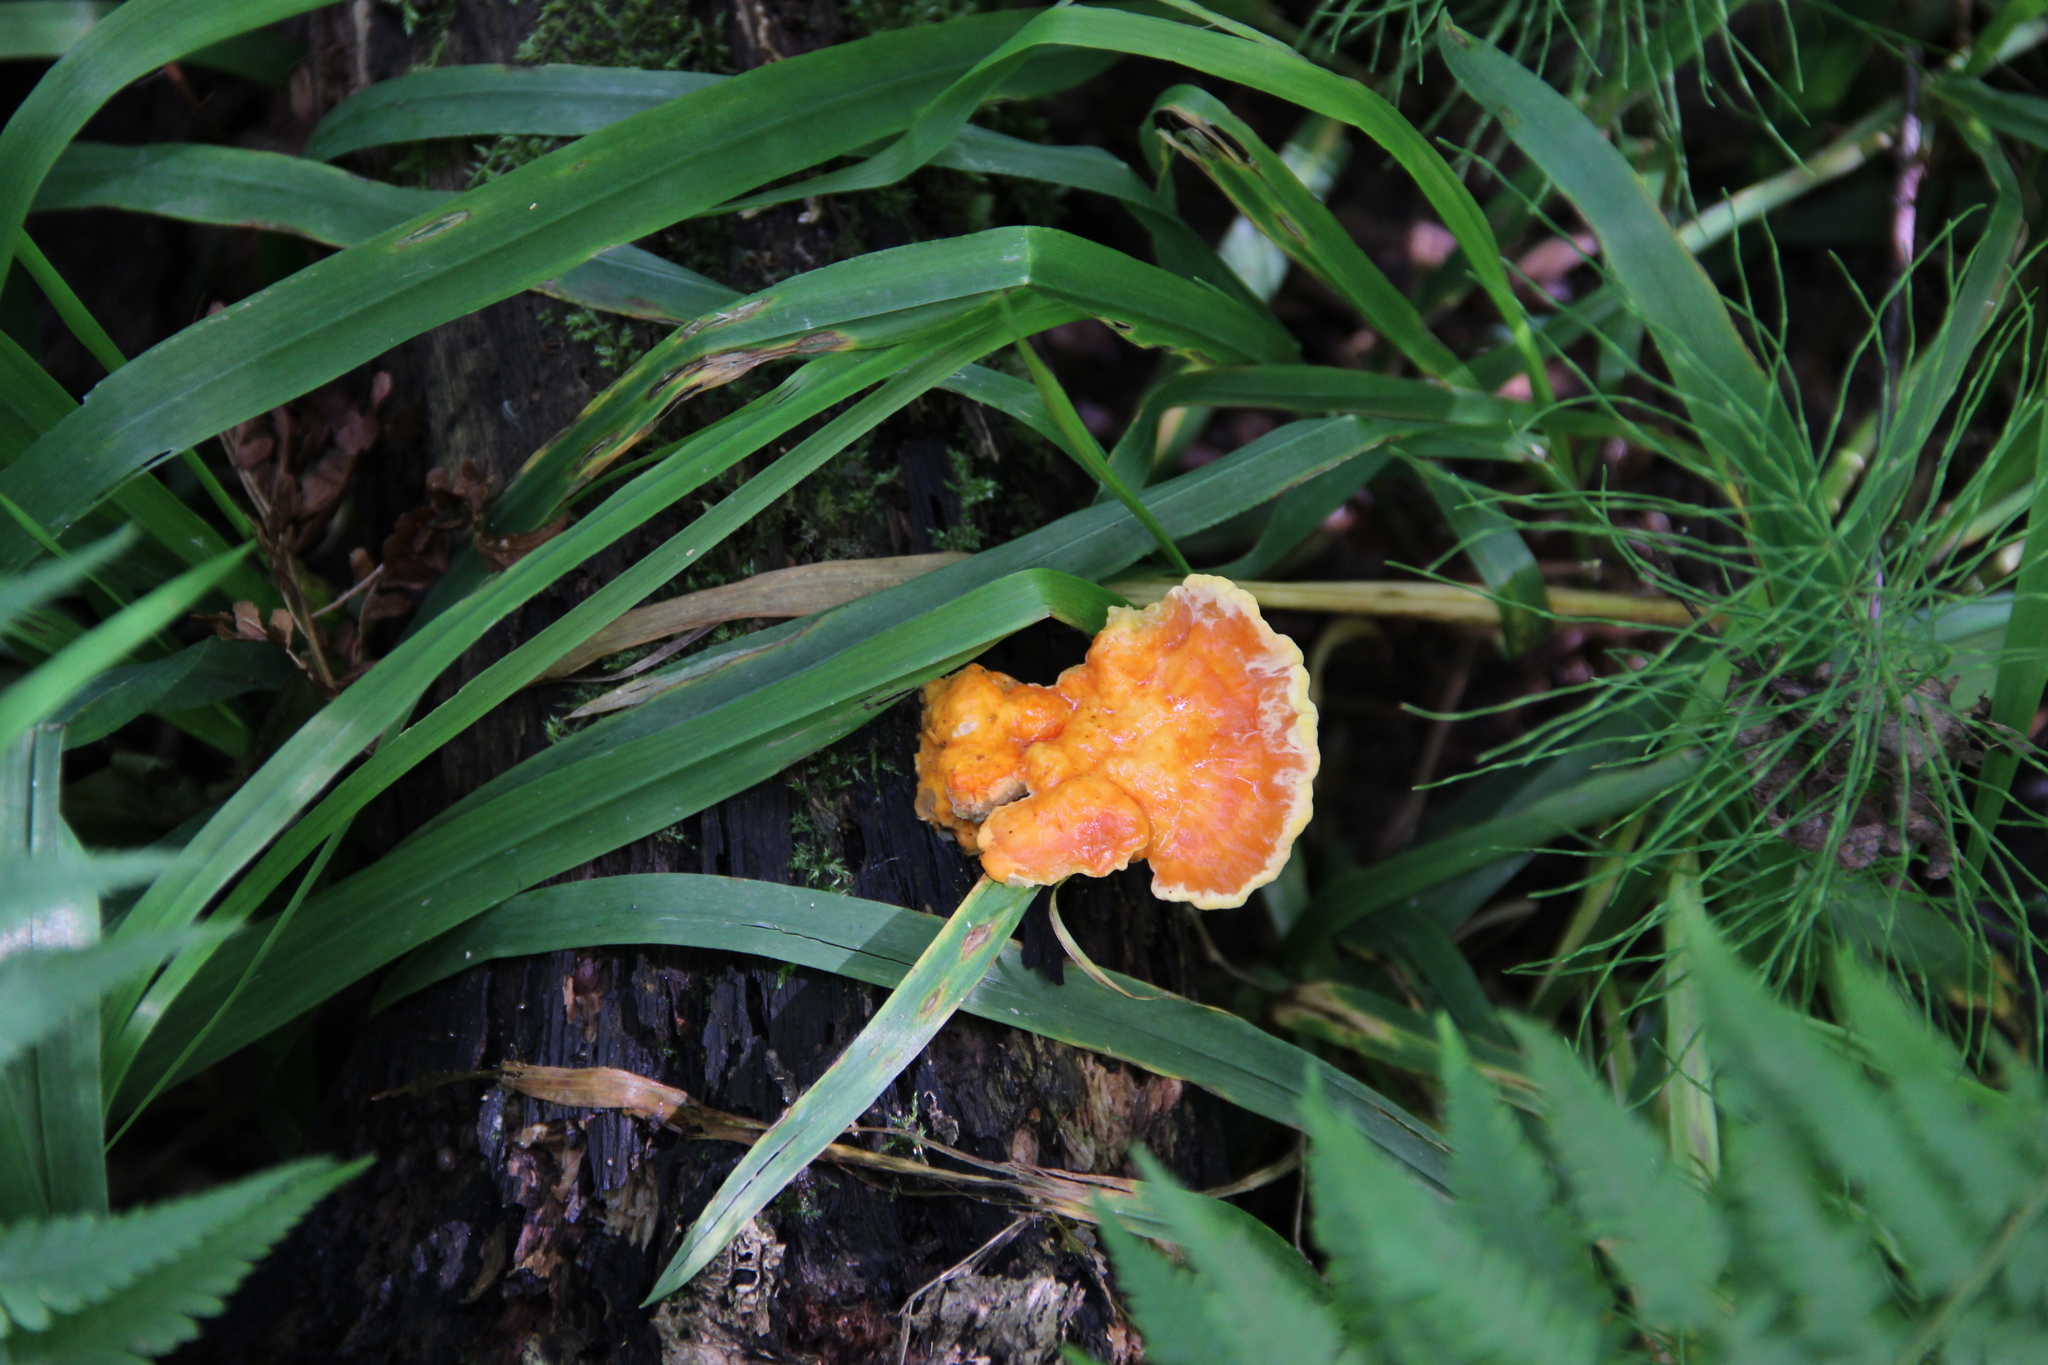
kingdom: Fungi
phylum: Basidiomycota
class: Agaricomycetes
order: Polyporales
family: Laetiporaceae
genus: Laetiporus
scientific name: Laetiporus sulphureus
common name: Chicken of the woods
